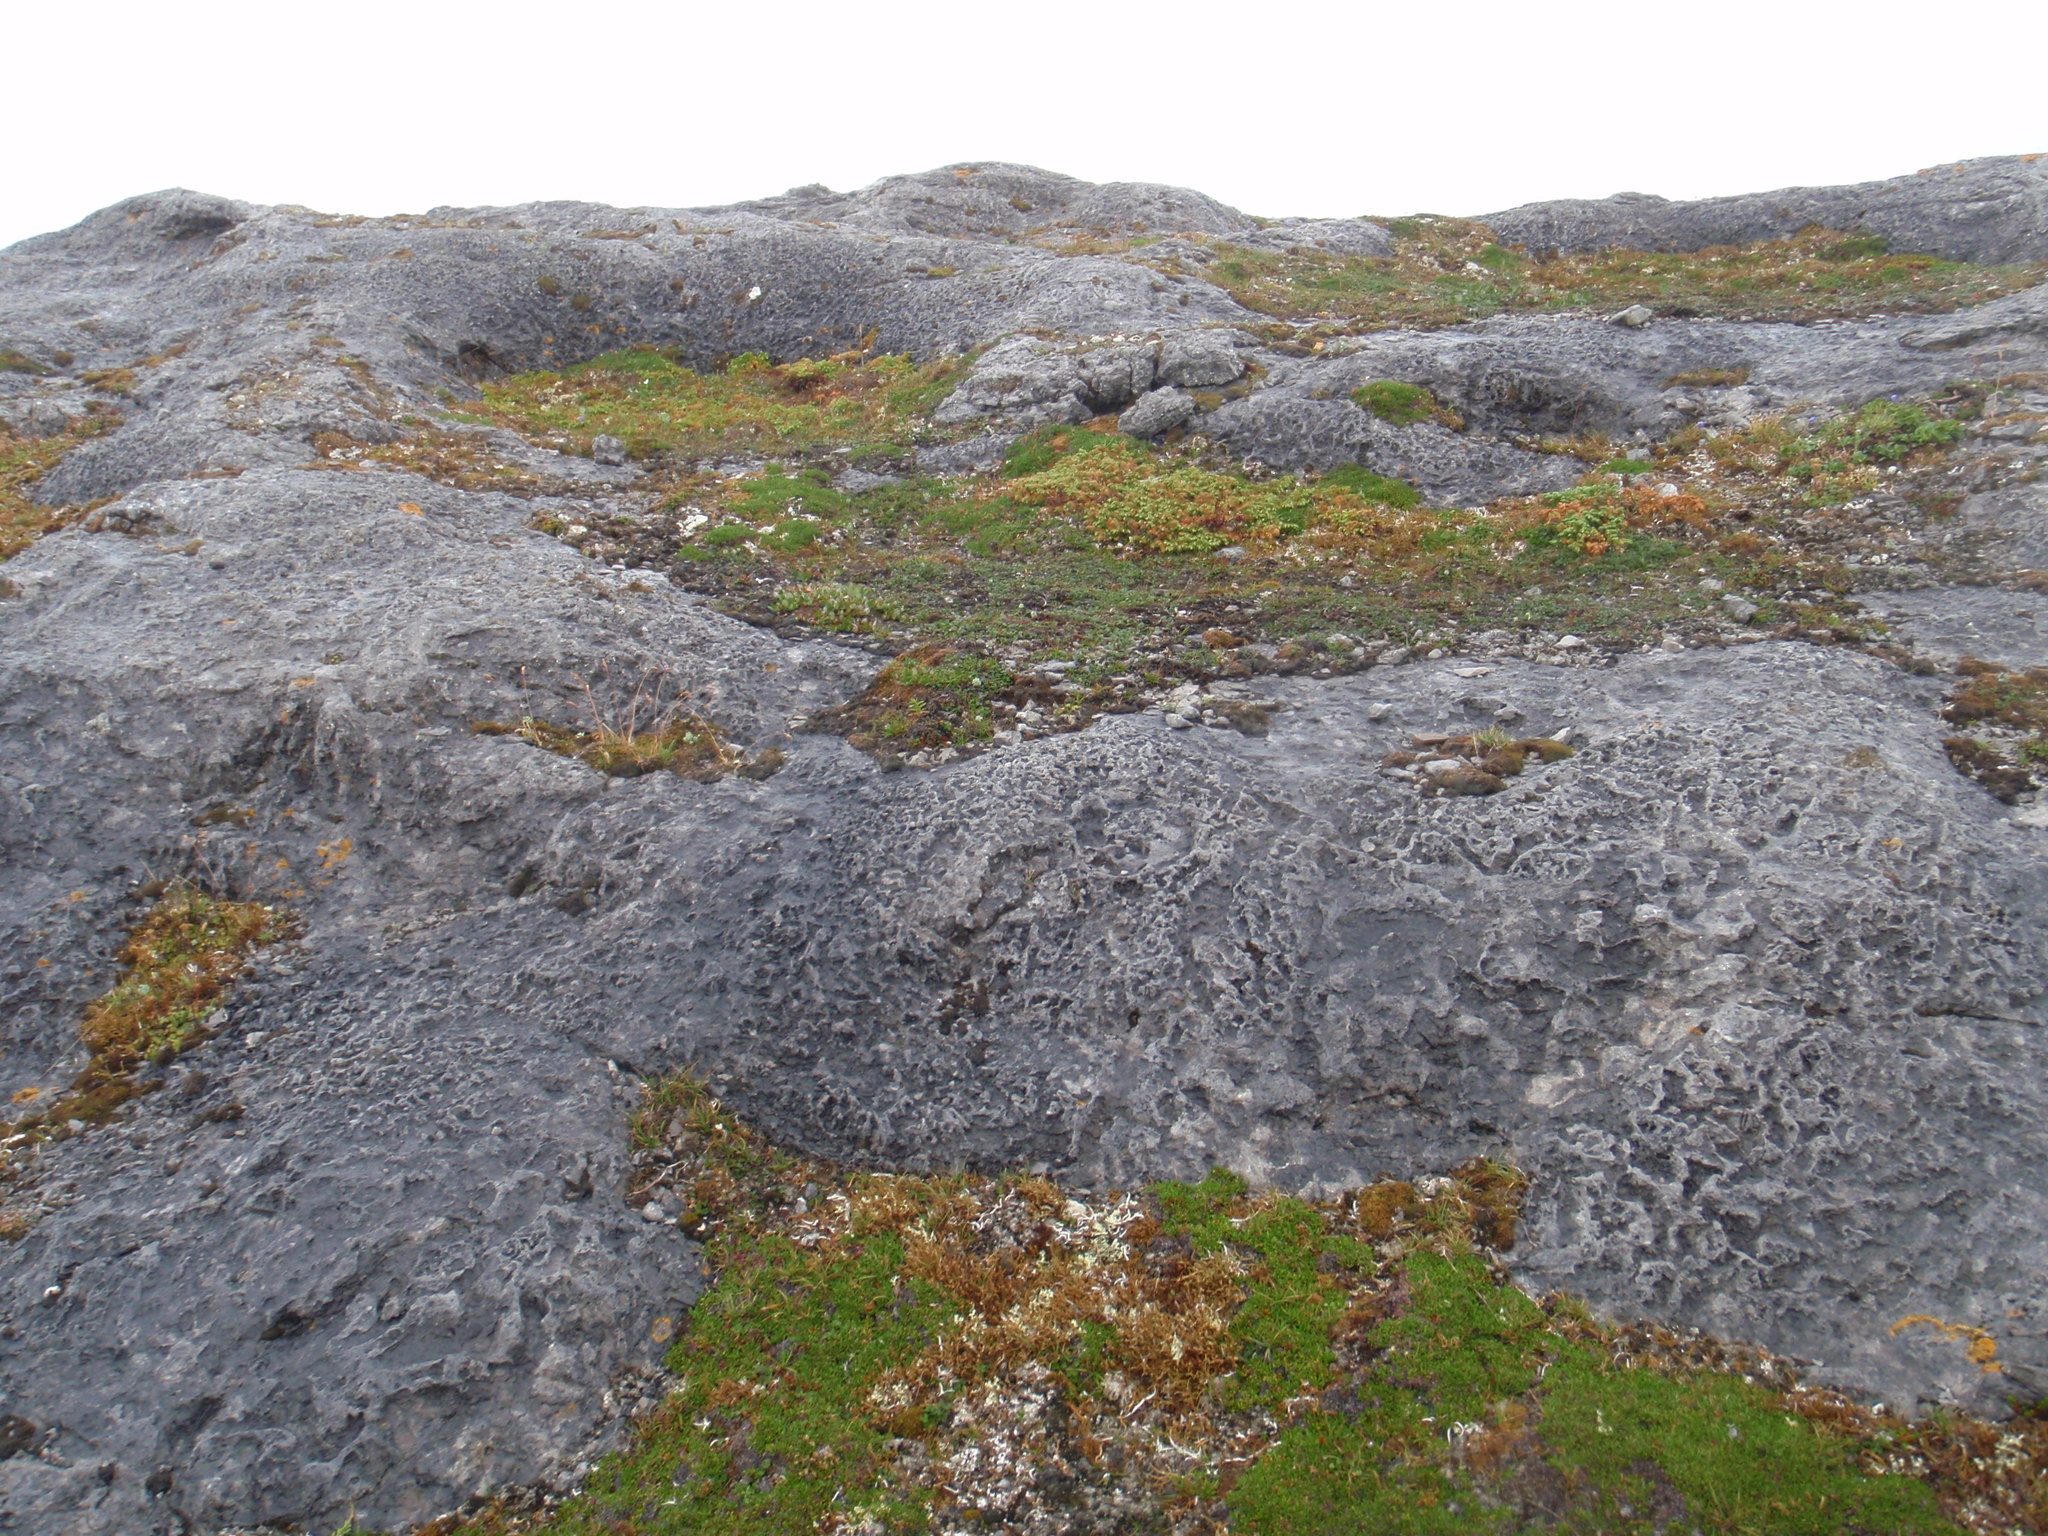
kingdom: Plantae
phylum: Tracheophyta
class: Magnoliopsida
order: Malpighiales
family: Salicaceae
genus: Salix
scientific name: Salix calcicola
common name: Calcareous willow
